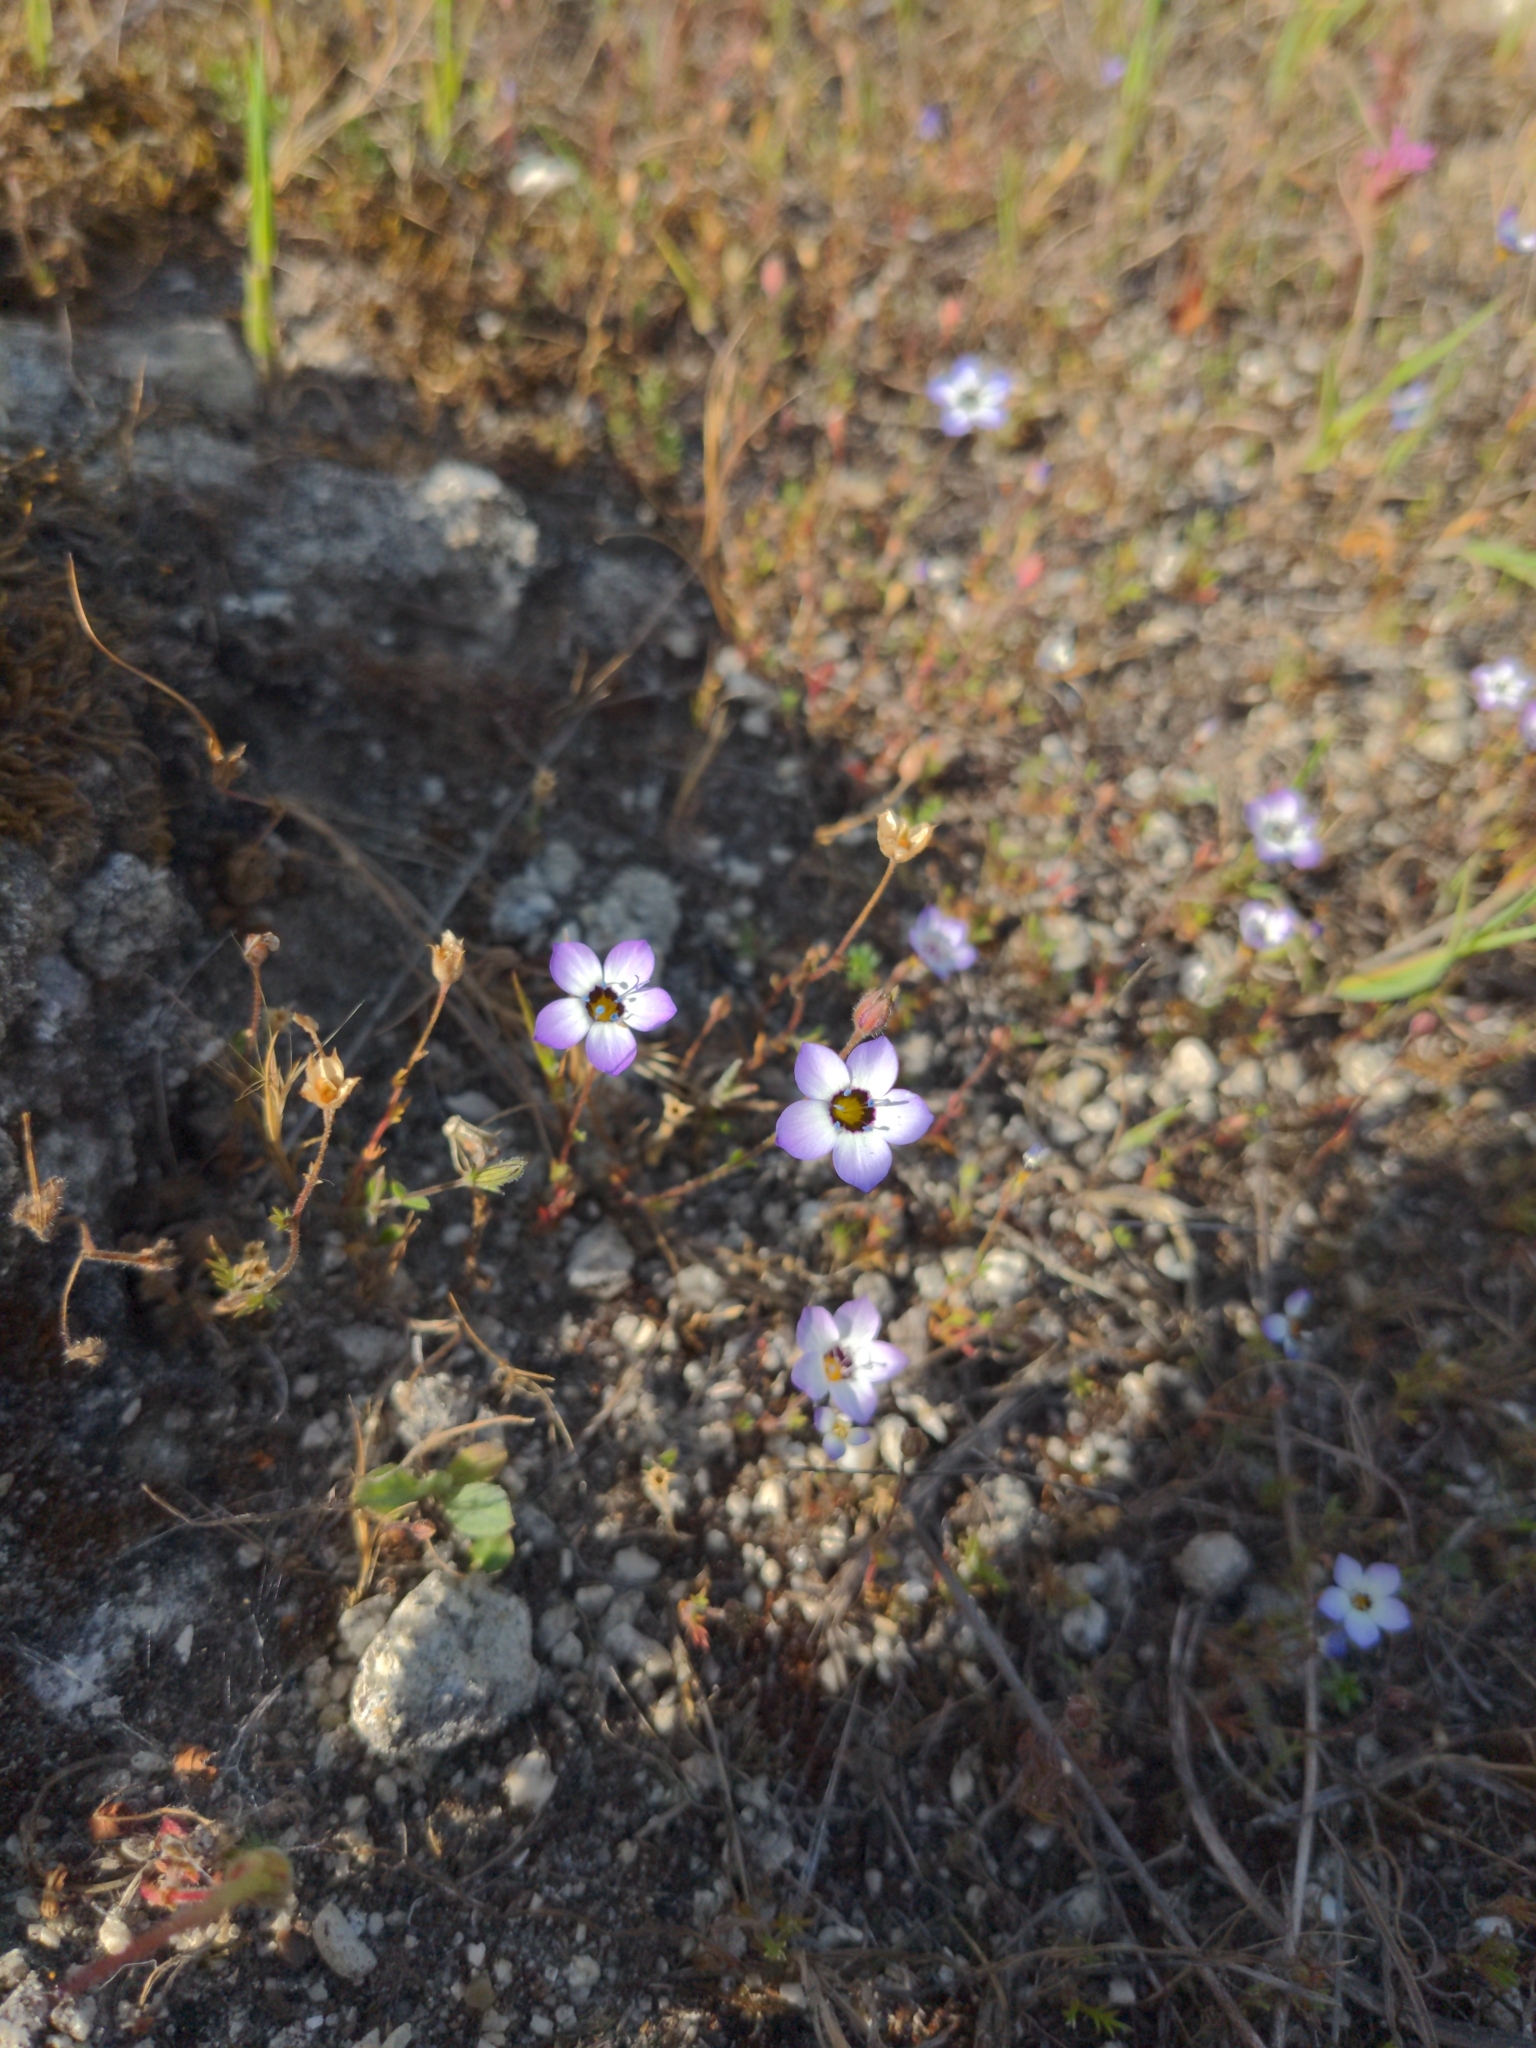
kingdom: Plantae
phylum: Tracheophyta
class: Magnoliopsida
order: Ericales
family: Polemoniaceae
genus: Gilia
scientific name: Gilia tricolor
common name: Bird's-eyes
